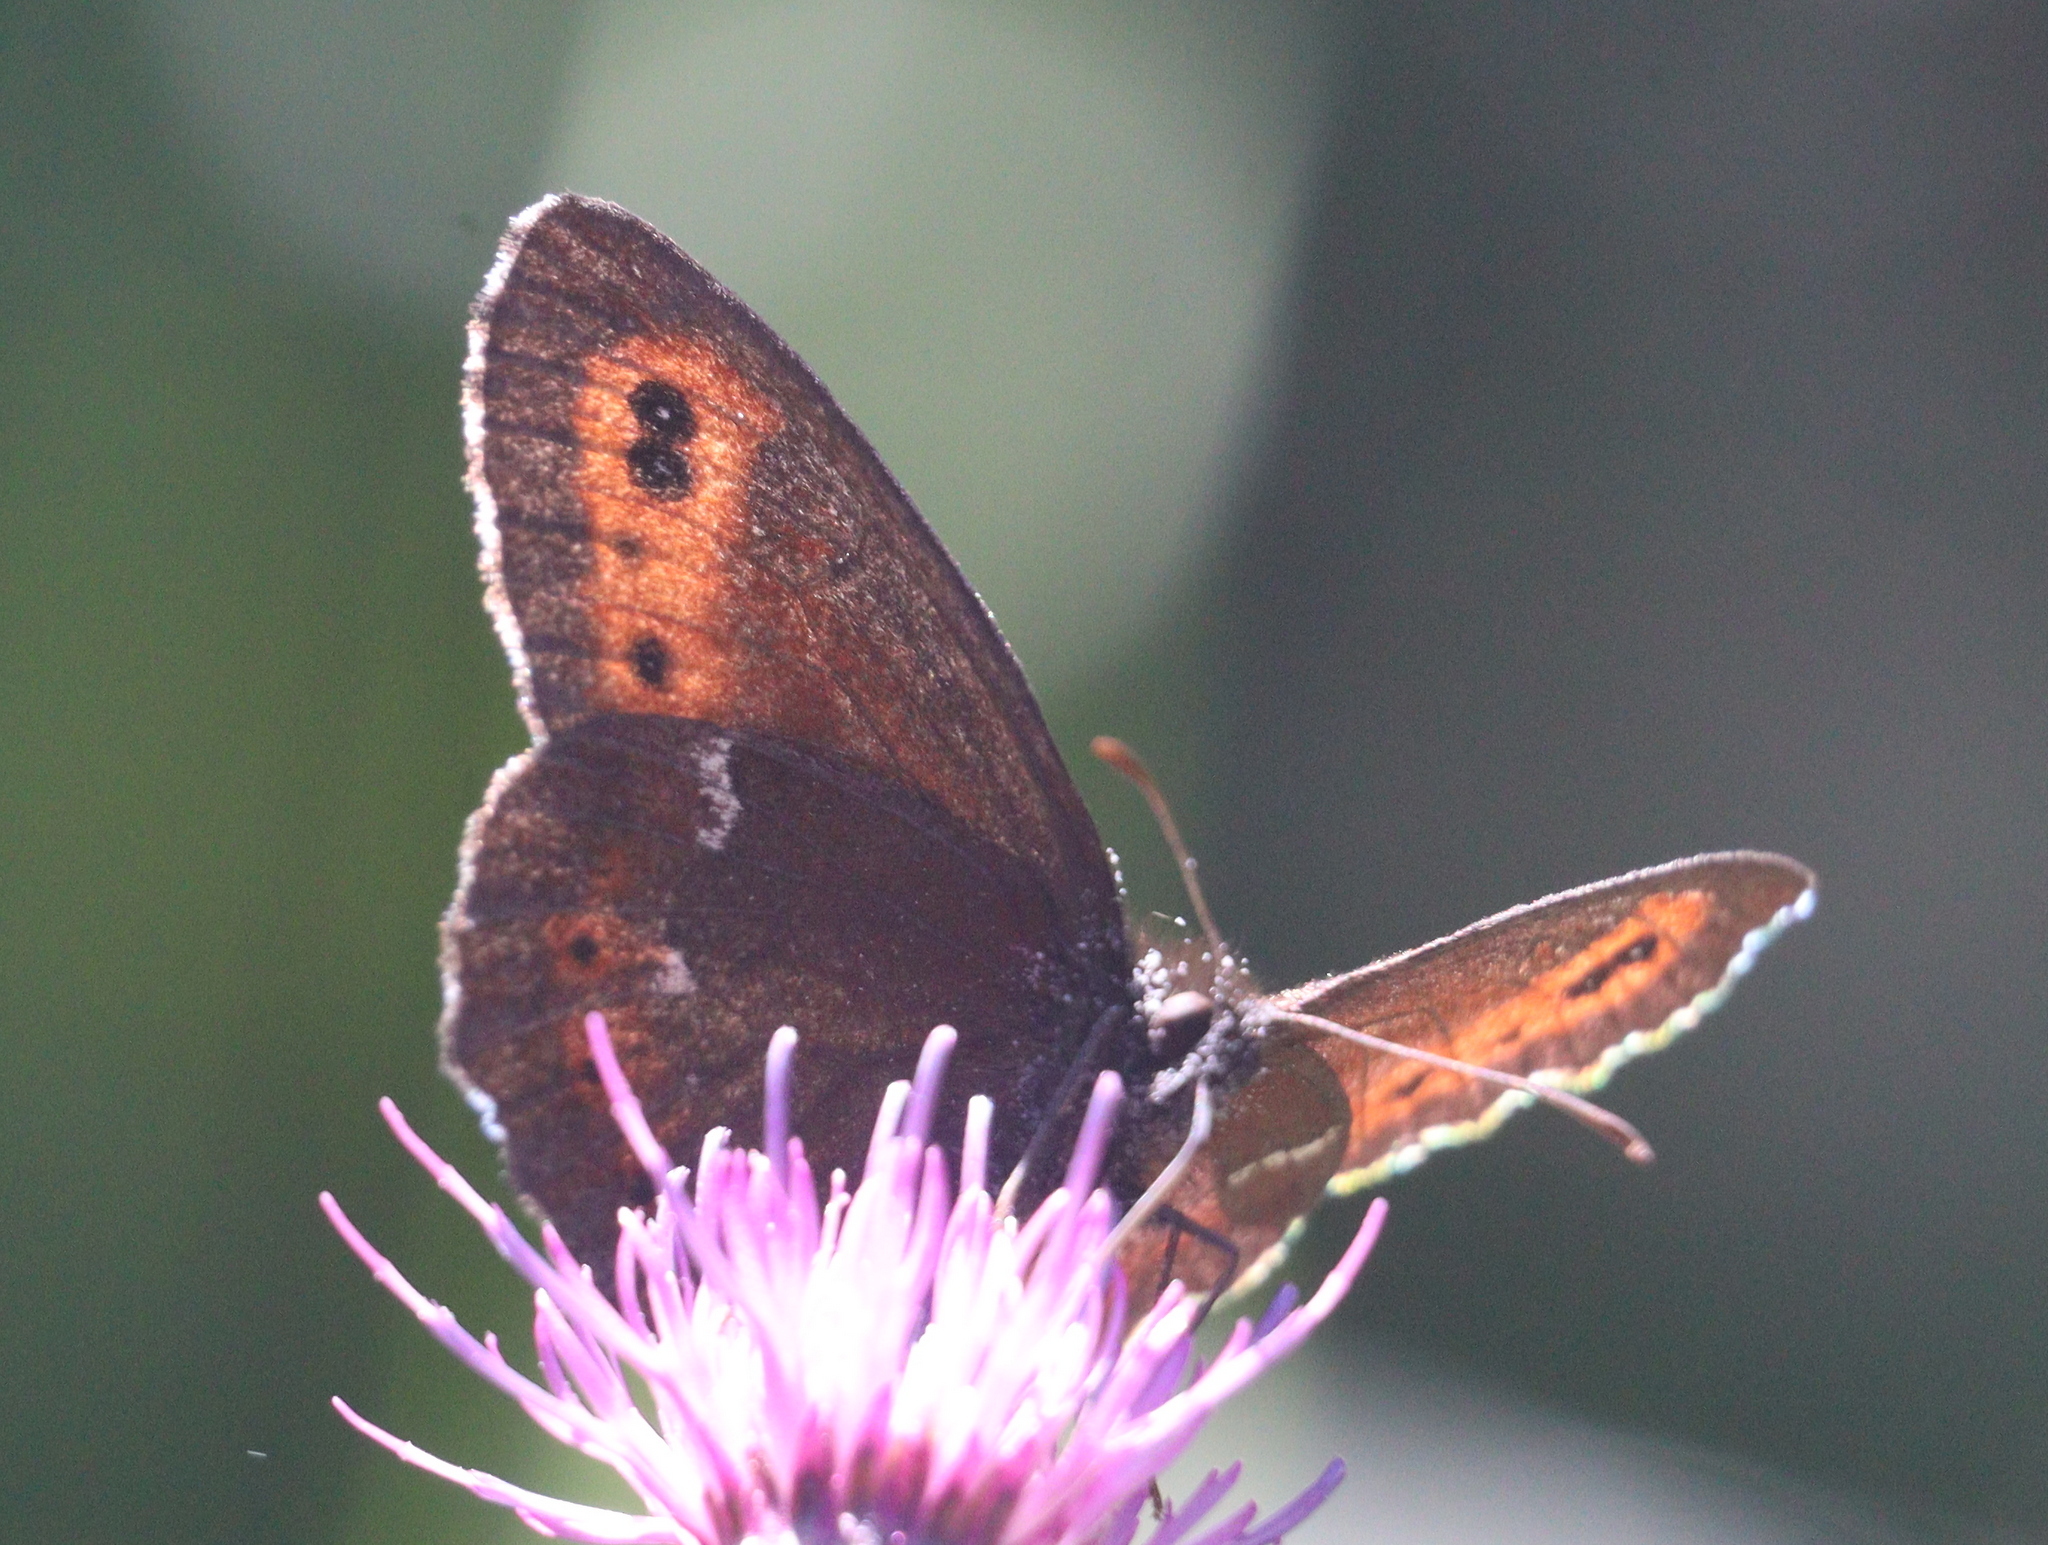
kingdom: Animalia
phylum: Arthropoda
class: Insecta
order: Lepidoptera
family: Nymphalidae
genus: Erebia
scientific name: Erebia ligea
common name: Arran brown
